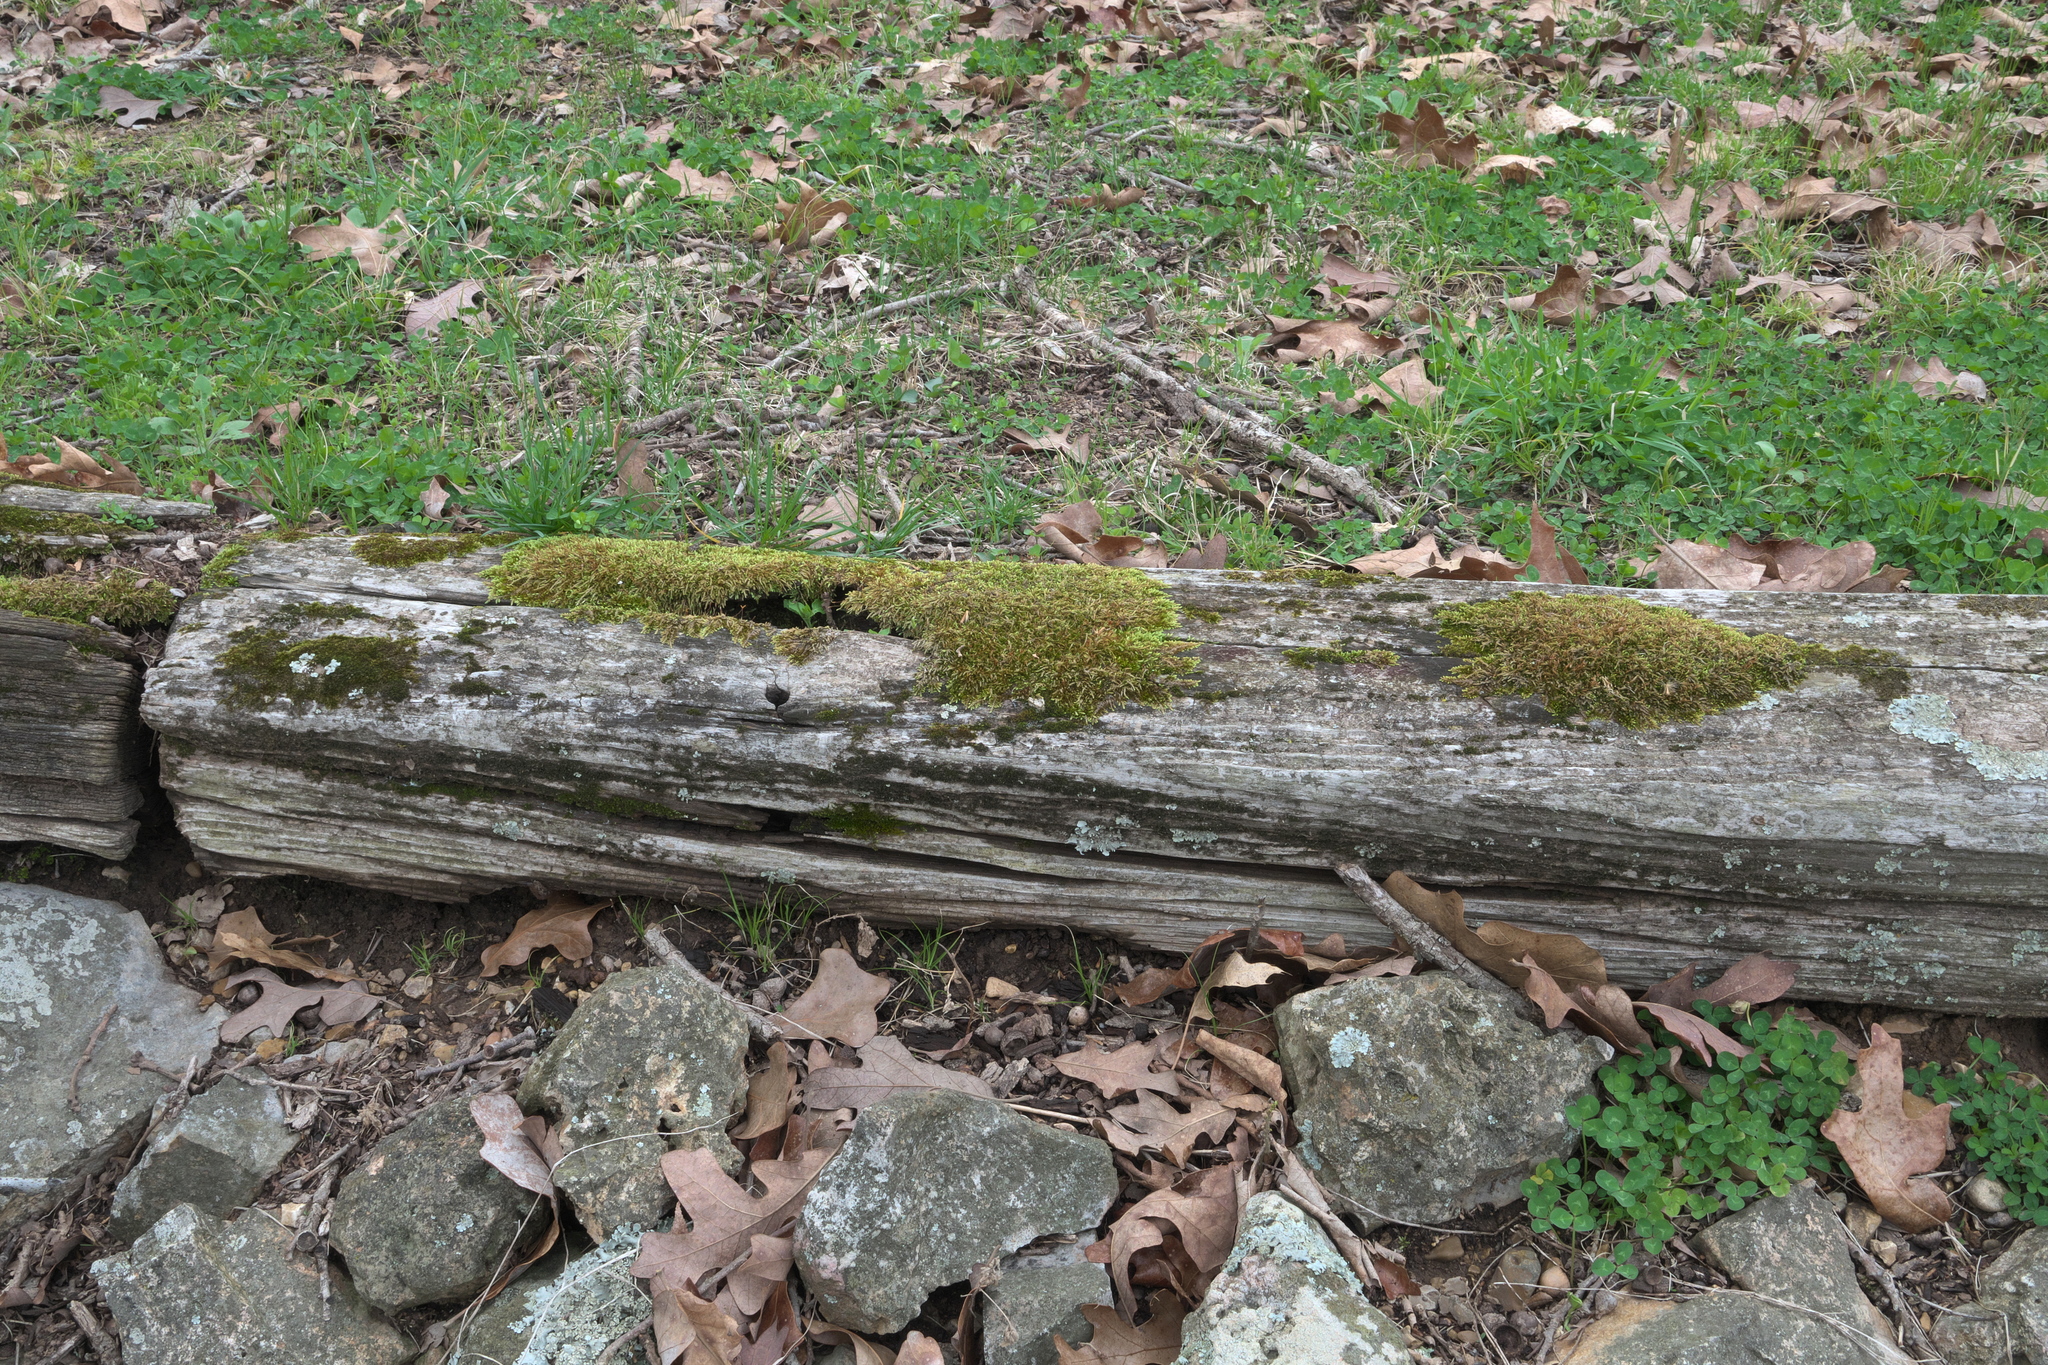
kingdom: Plantae
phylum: Bryophyta
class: Bryopsida
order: Hypnales
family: Entodontaceae
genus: Entodon
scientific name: Entodon seductrix
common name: Round-stemmed entodon moss
